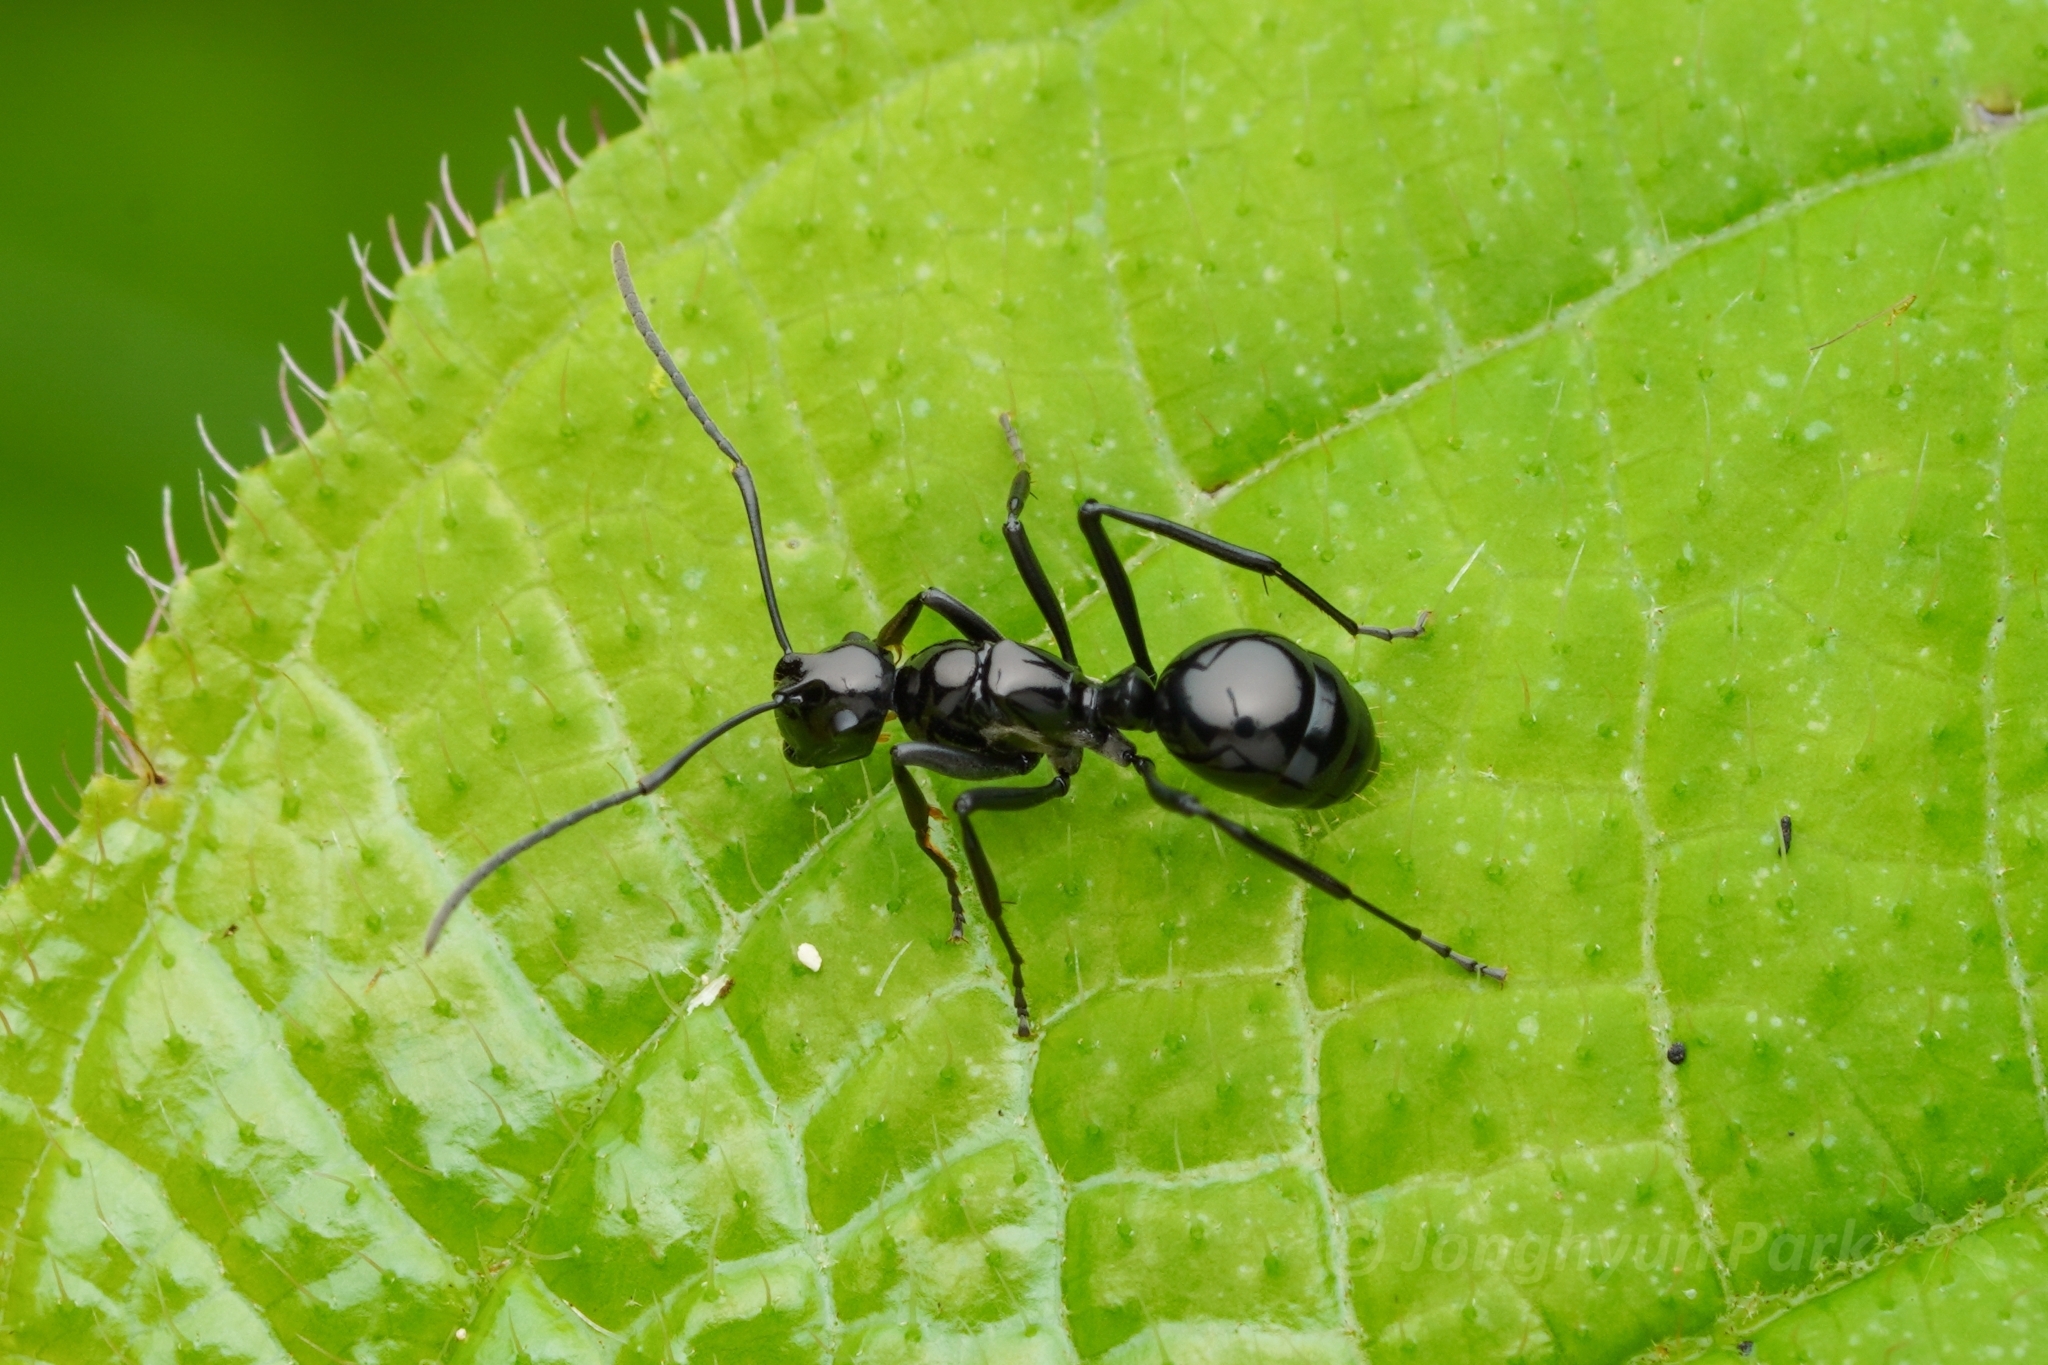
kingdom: Animalia
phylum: Arthropoda
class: Insecta
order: Hymenoptera
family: Formicidae
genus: Polyrhachis
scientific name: Polyrhachis boltoni
